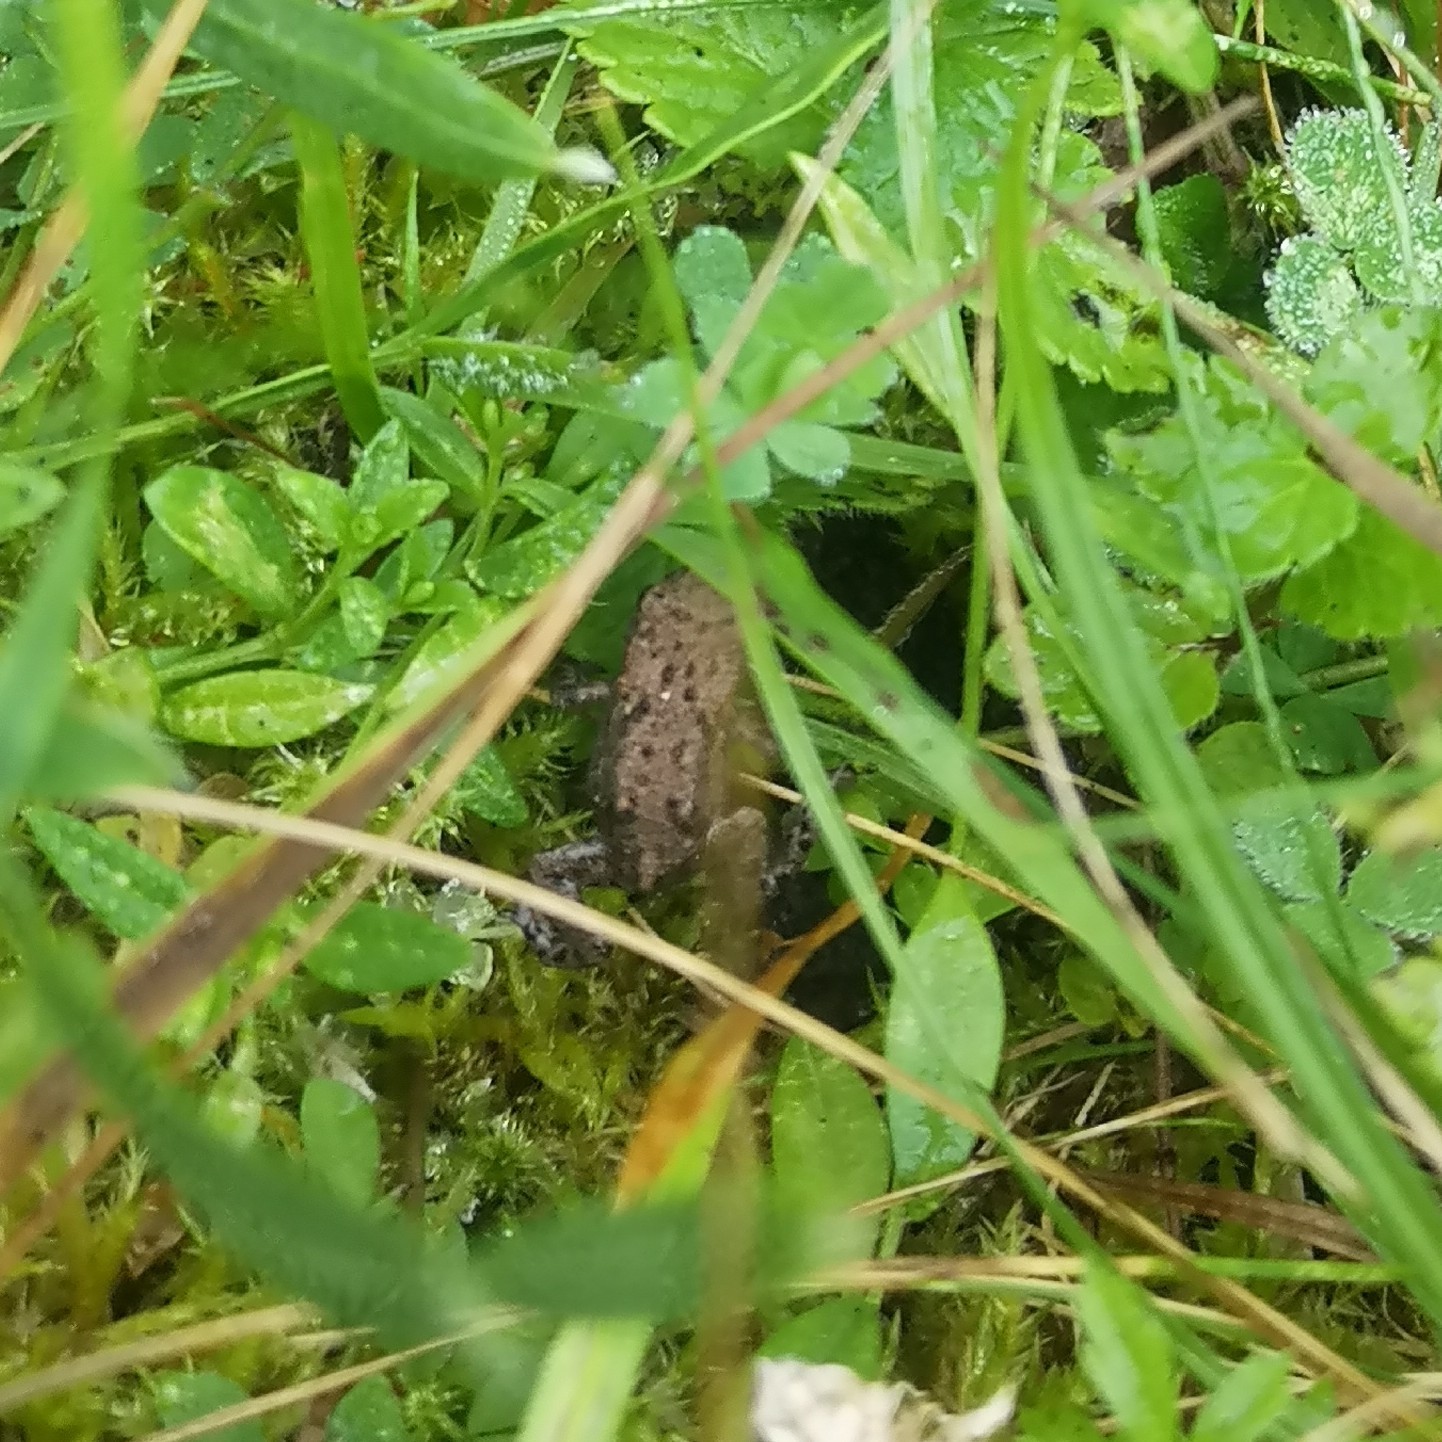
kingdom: Animalia
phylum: Chordata
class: Amphibia
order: Anura
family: Bufonidae
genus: Bufo
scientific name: Bufo bufo
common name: Common toad
